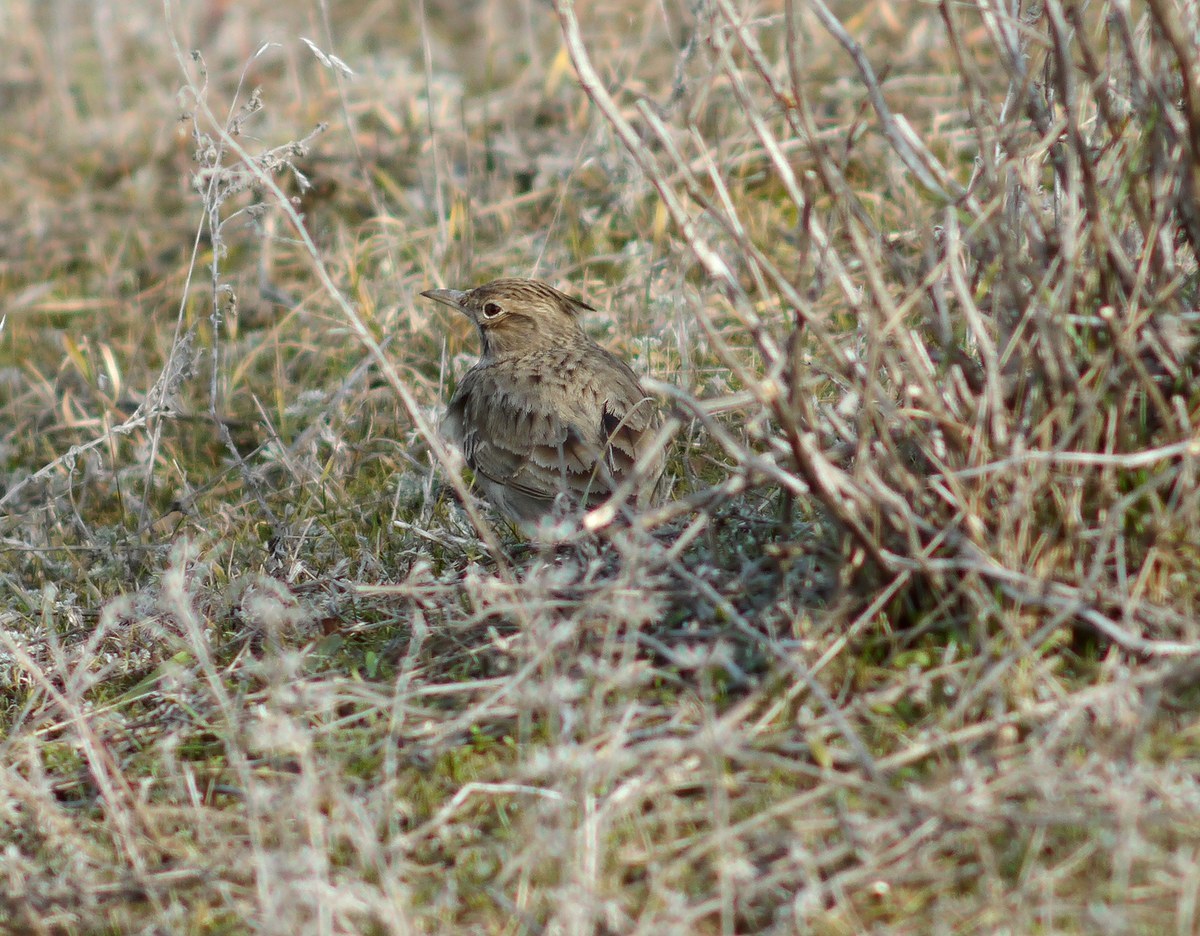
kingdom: Animalia
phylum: Chordata
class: Aves
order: Passeriformes
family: Alaudidae
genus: Galerida
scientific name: Galerida cristata
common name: Crested lark
